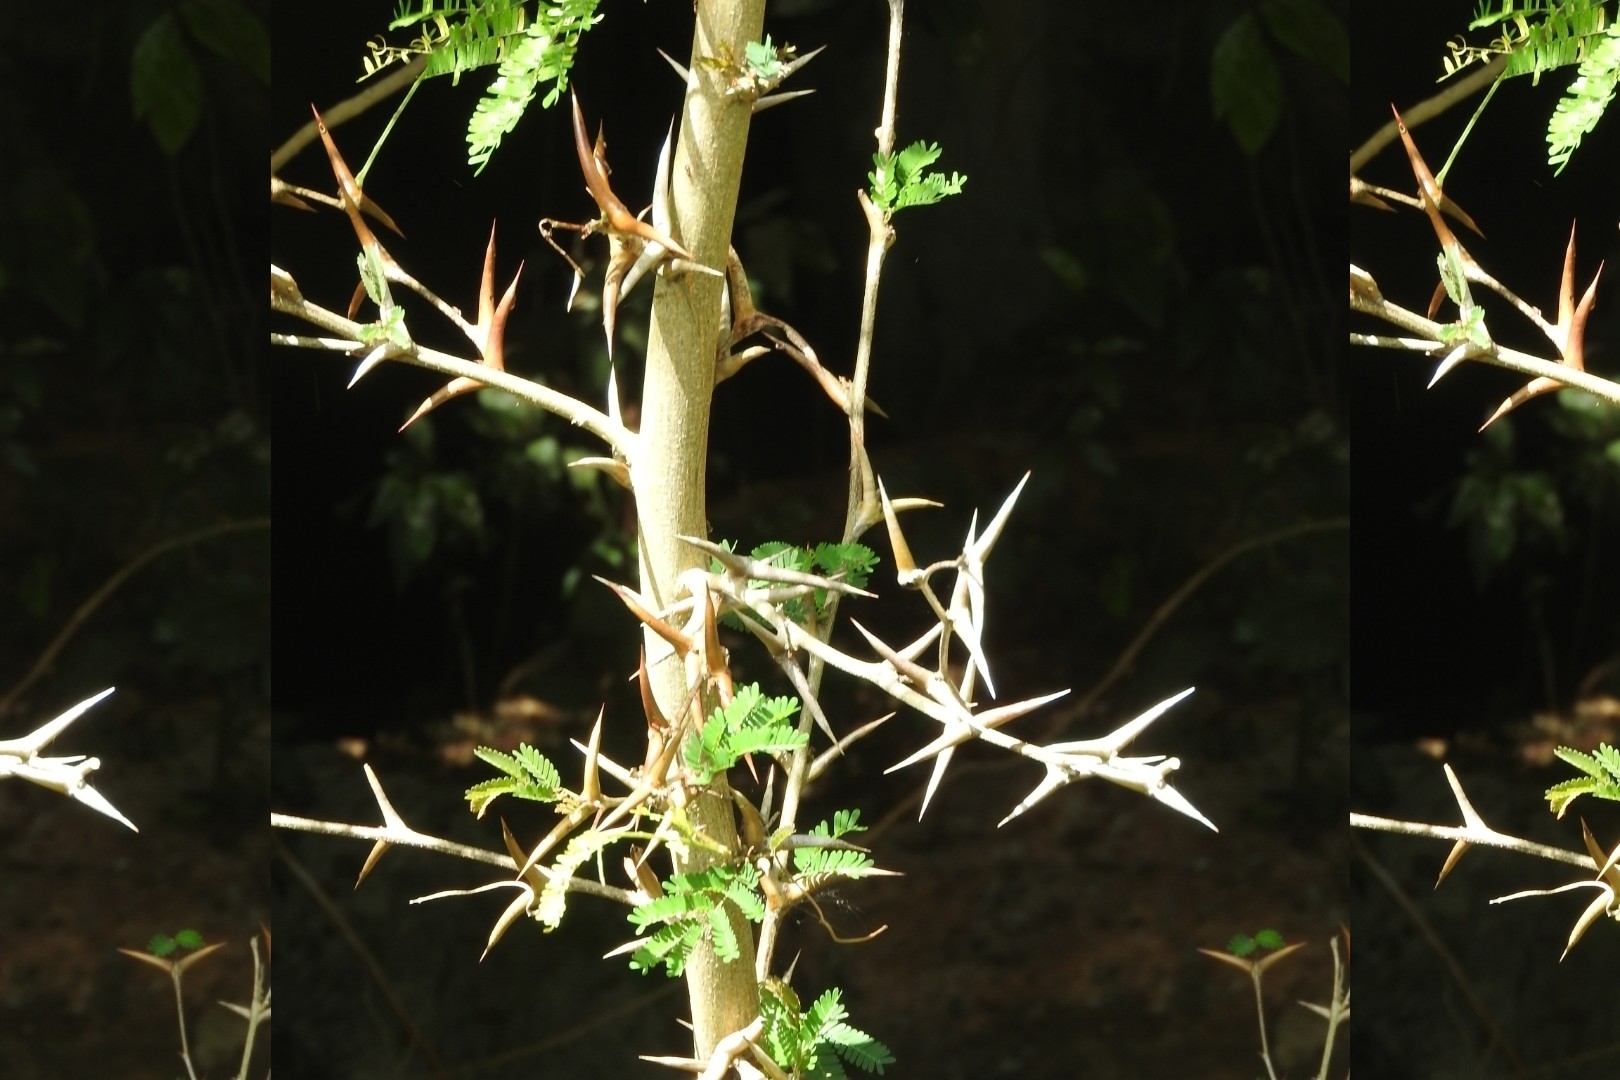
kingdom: Plantae
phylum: Tracheophyta
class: Magnoliopsida
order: Fabales
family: Fabaceae
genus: Vachellia
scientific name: Vachellia cornigera
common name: Bullhorn wattle
